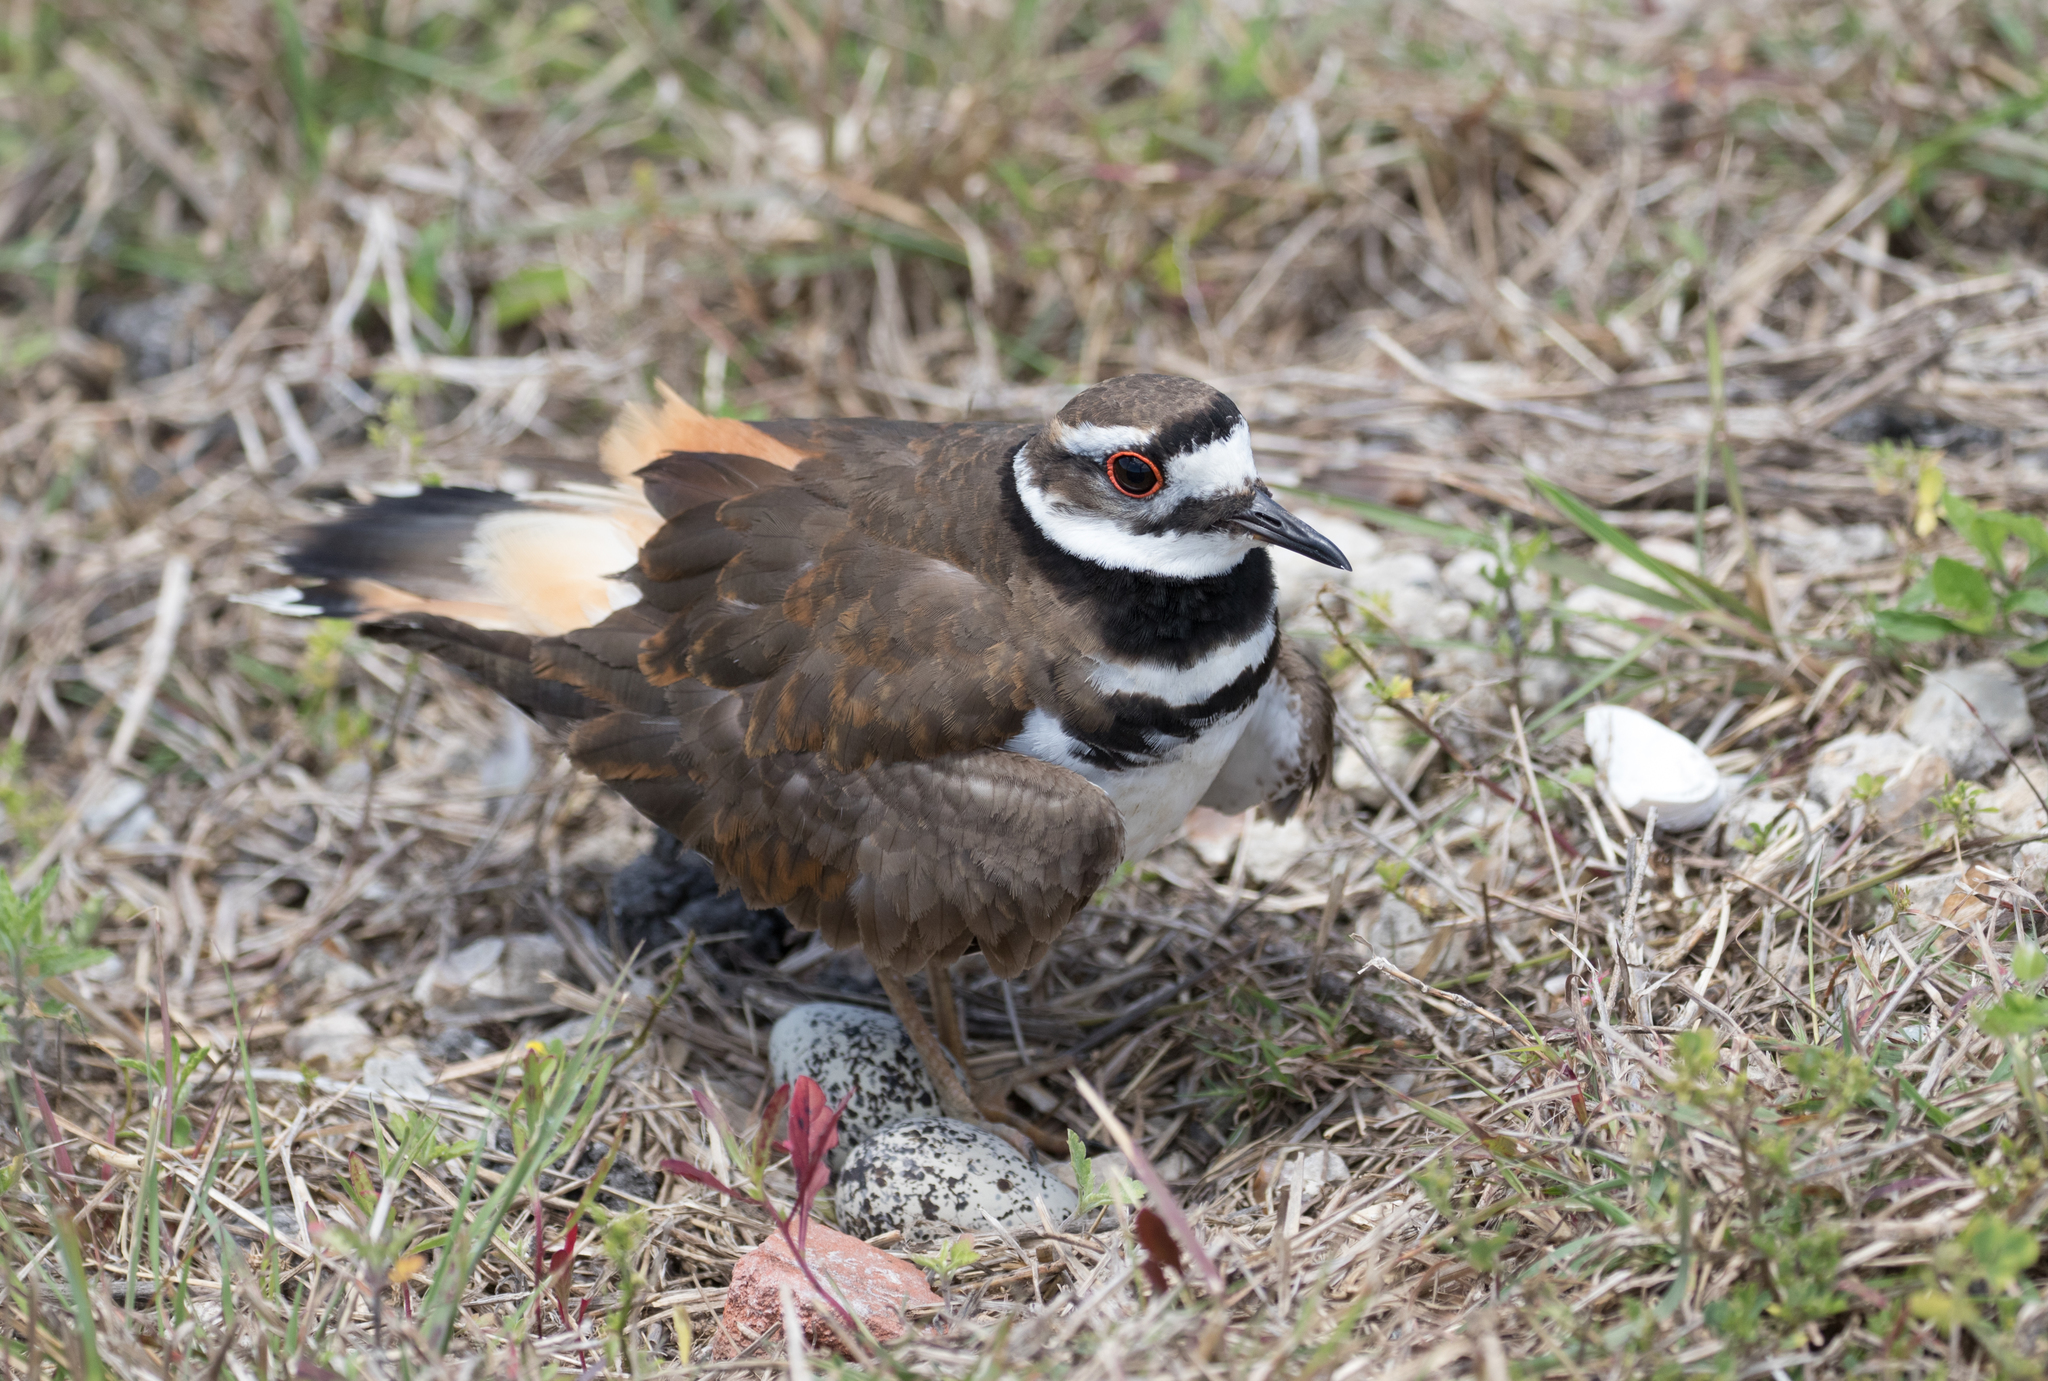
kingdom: Animalia
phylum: Chordata
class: Aves
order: Charadriiformes
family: Charadriidae
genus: Charadrius
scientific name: Charadrius vociferus
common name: Killdeer
